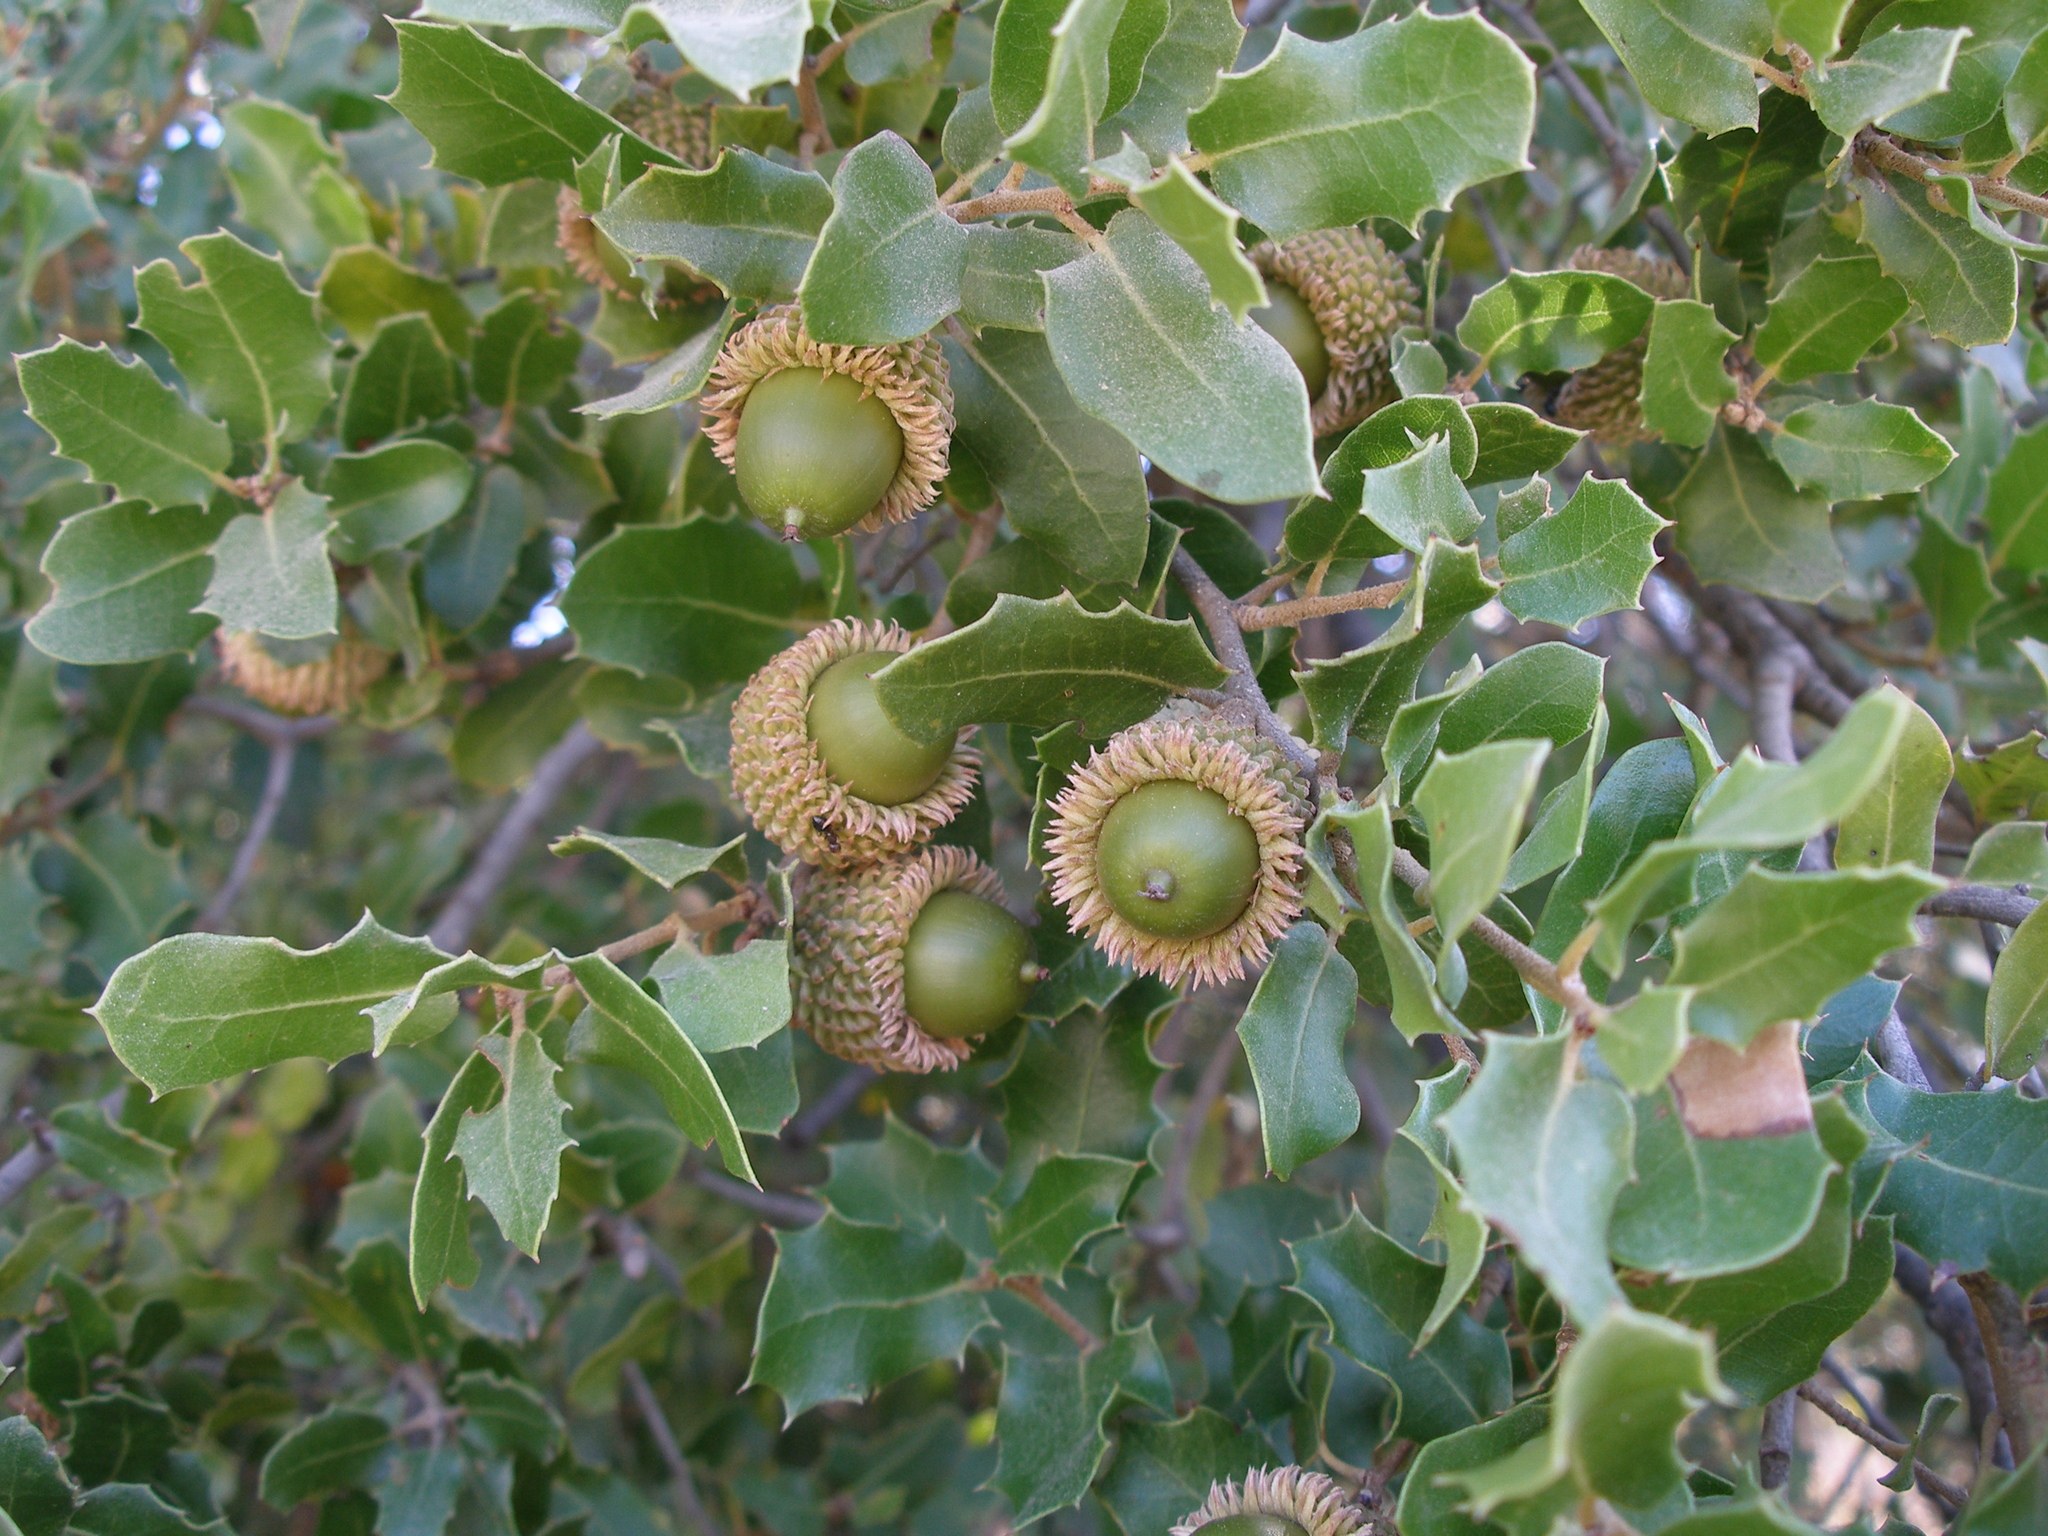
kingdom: Plantae
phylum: Tracheophyta
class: Magnoliopsida
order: Fagales
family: Fagaceae
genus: Quercus
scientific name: Quercus coccifera
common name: Kermes oak
